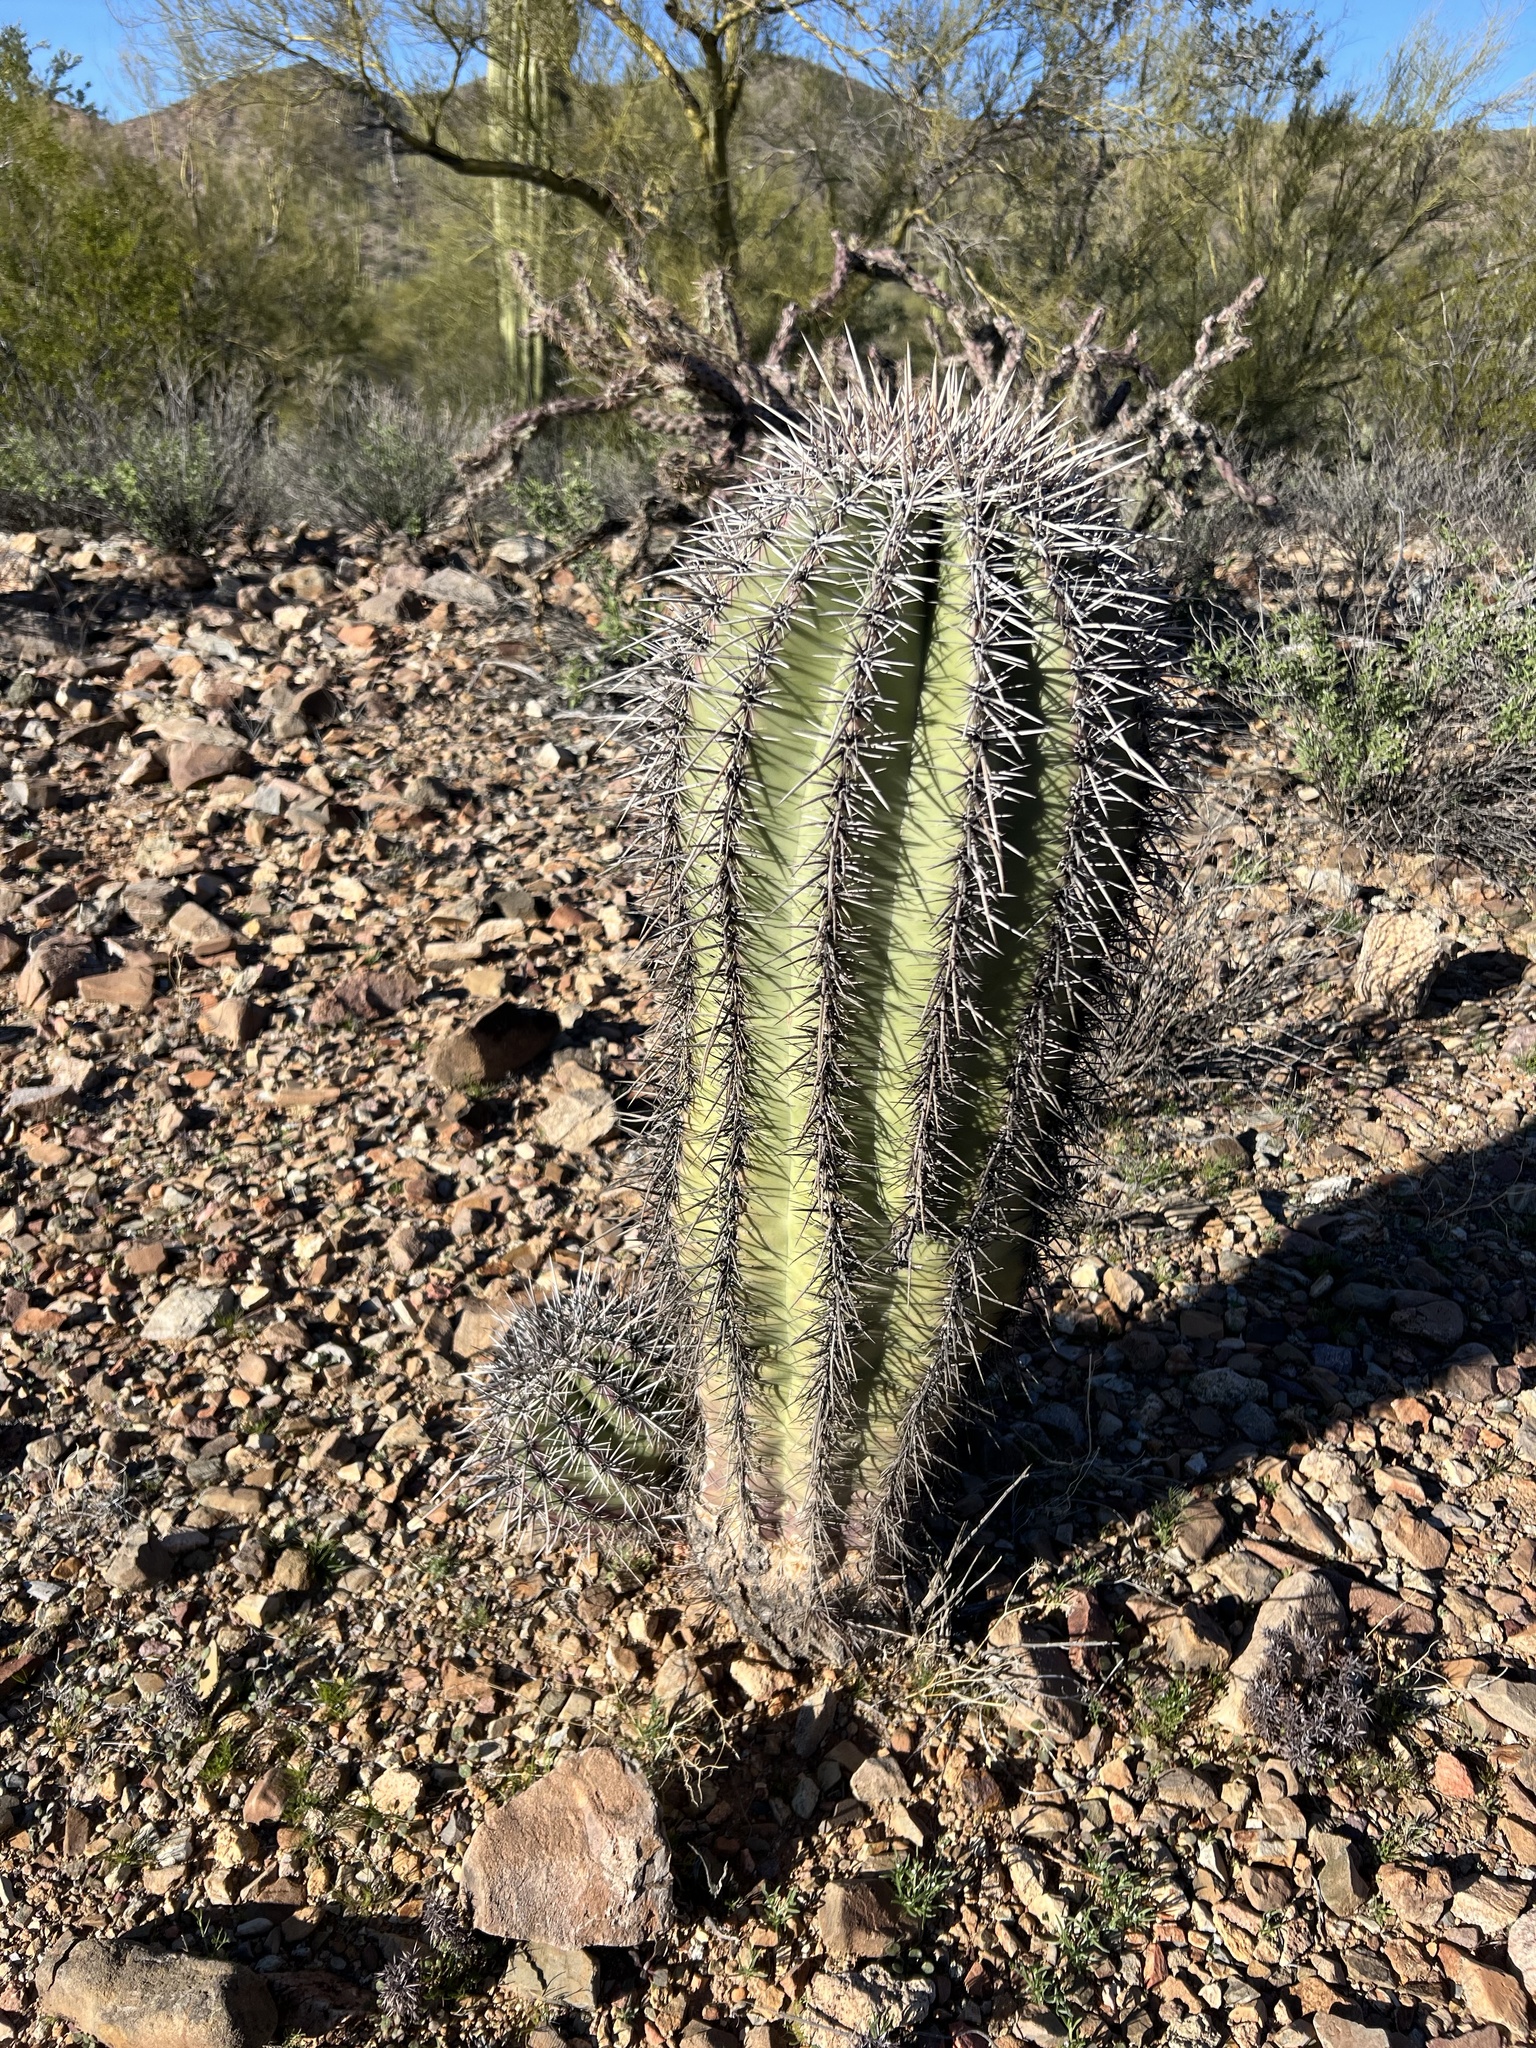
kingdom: Plantae
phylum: Tracheophyta
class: Magnoliopsida
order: Caryophyllales
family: Cactaceae
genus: Carnegiea
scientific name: Carnegiea gigantea
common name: Saguaro
